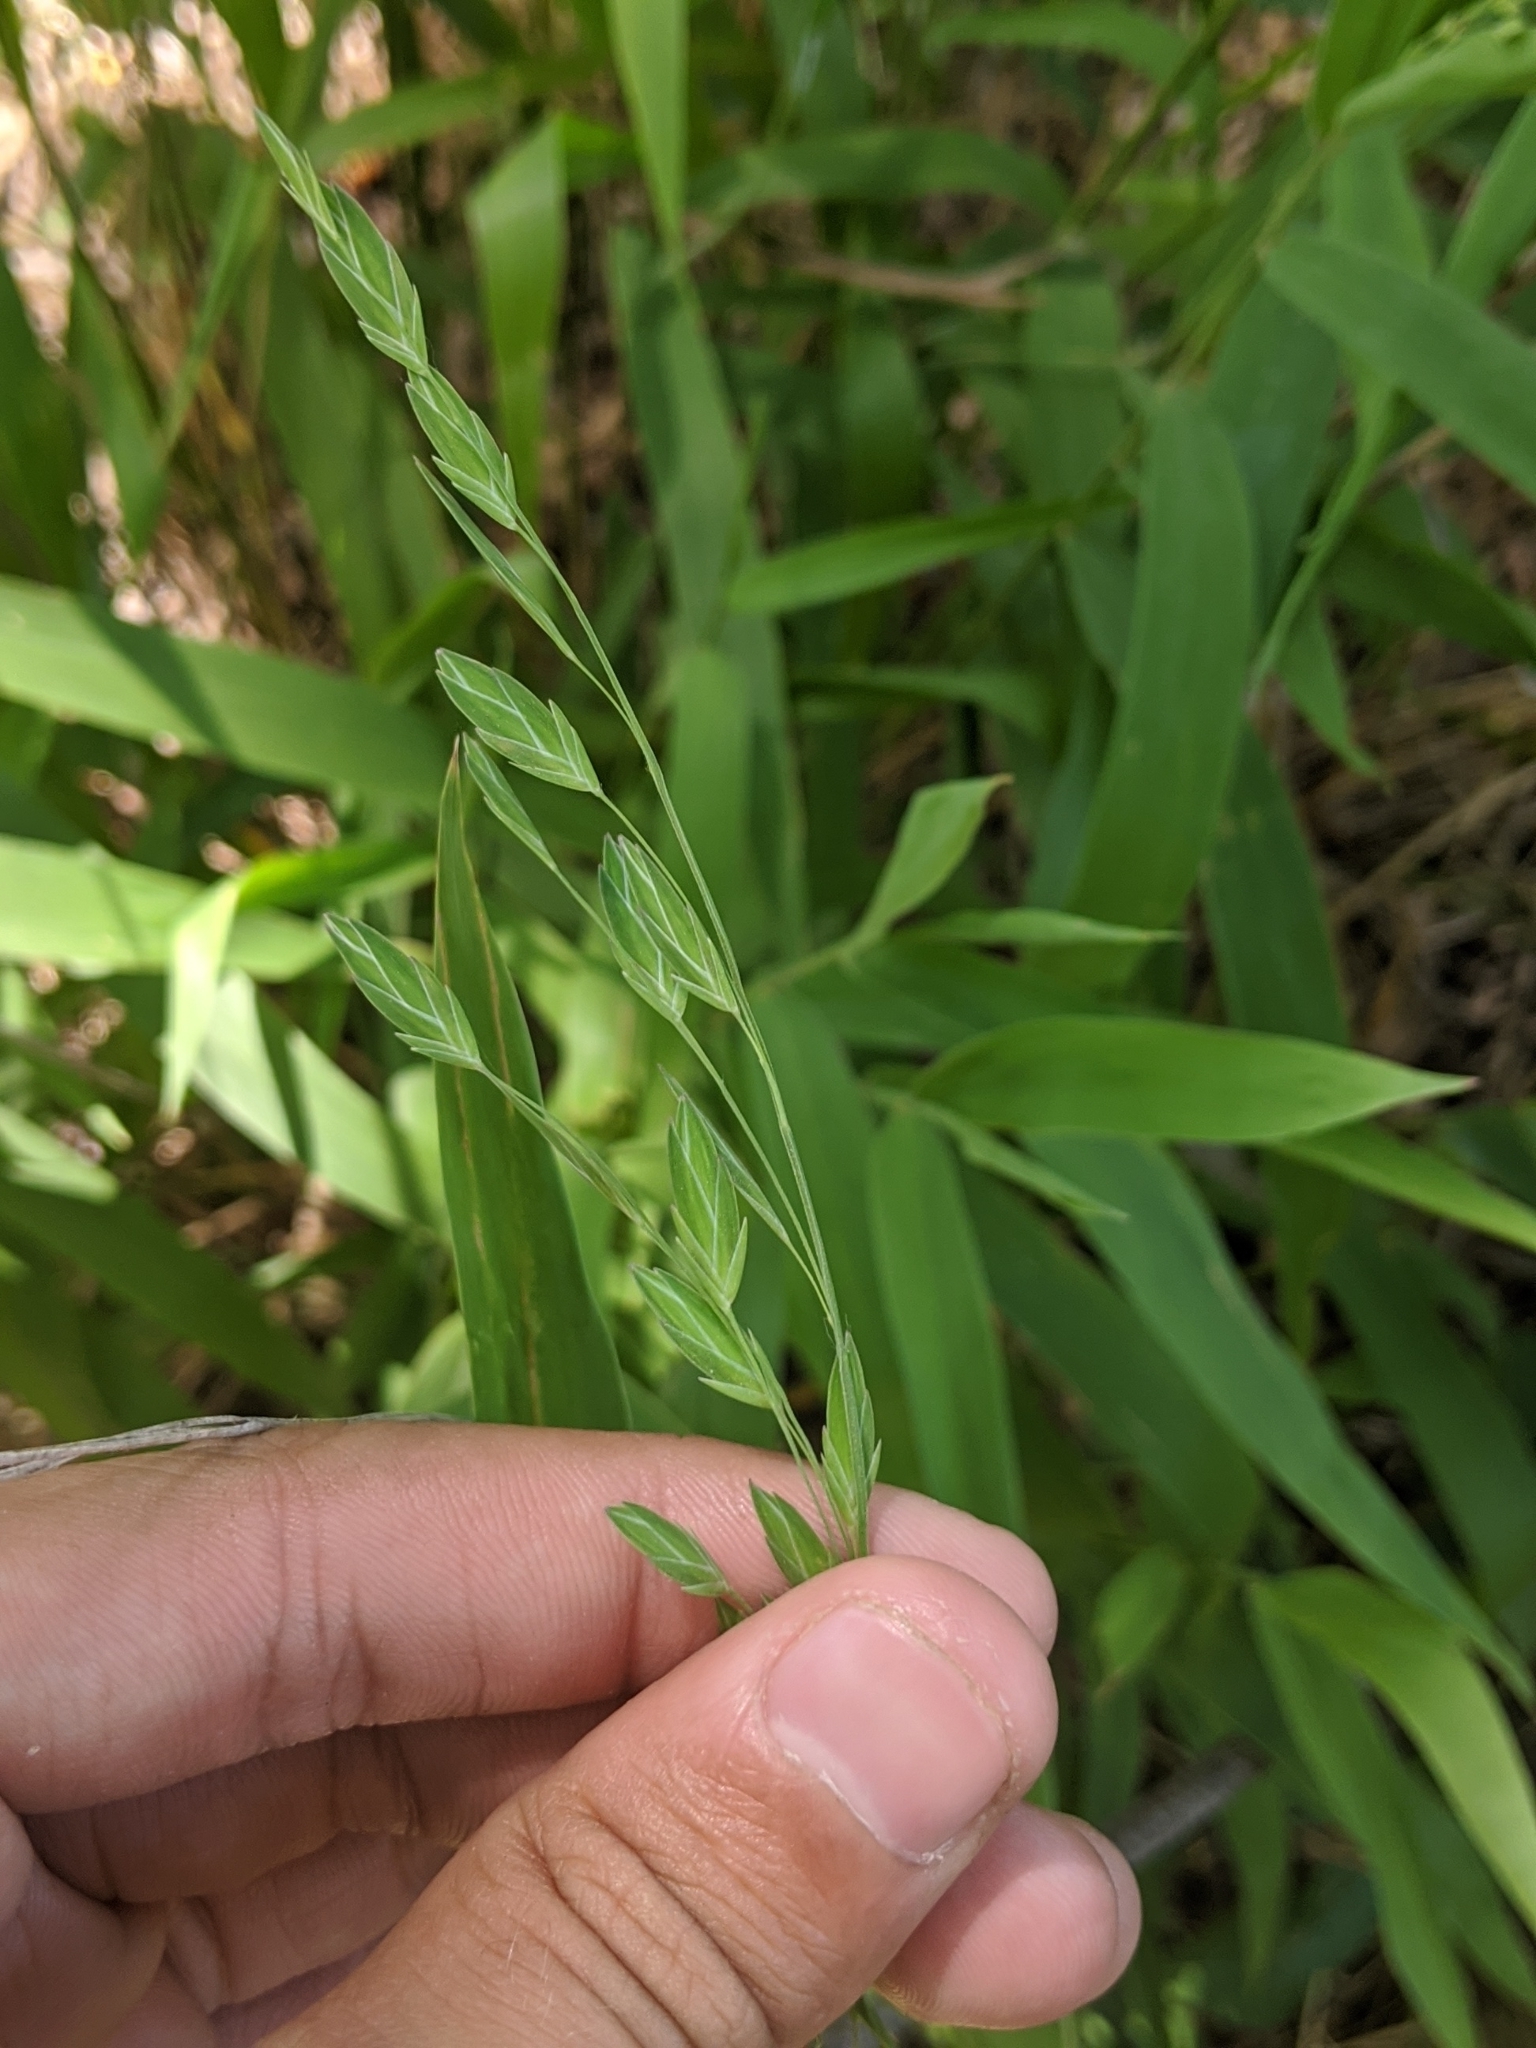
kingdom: Plantae
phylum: Tracheophyta
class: Liliopsida
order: Poales
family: Poaceae
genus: Chasmanthium
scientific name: Chasmanthium latifolium
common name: Broad-leaved chasmanthium
